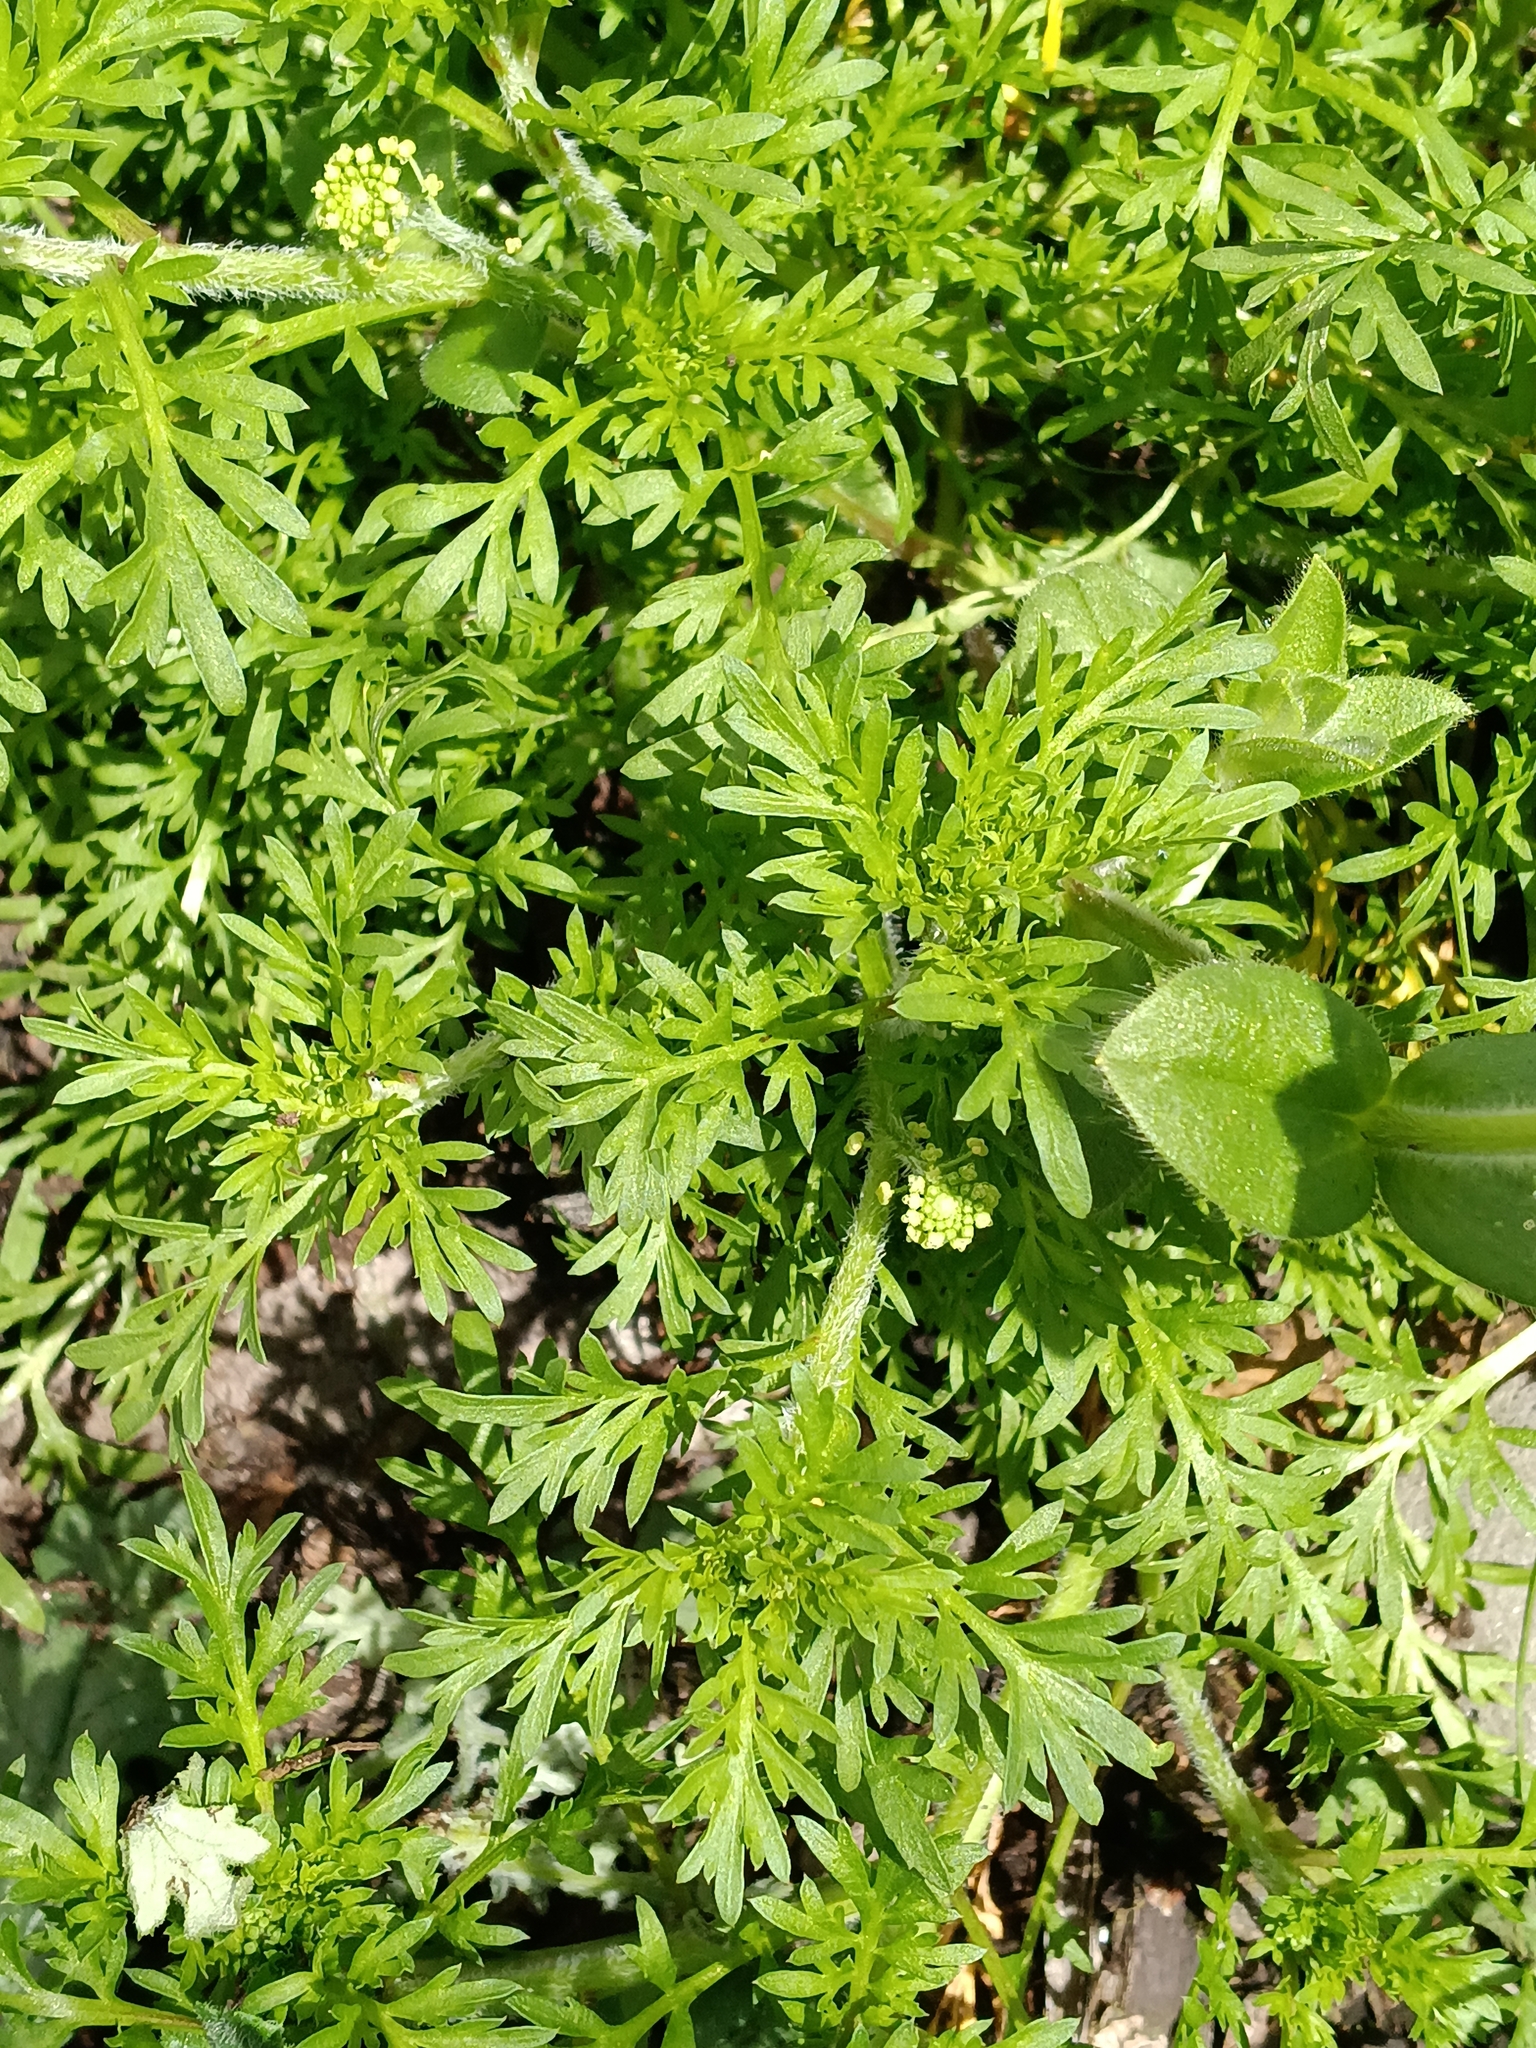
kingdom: Plantae
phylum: Tracheophyta
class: Magnoliopsida
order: Brassicales
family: Brassicaceae
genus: Lepidium
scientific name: Lepidium didymum
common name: Lesser swinecress
